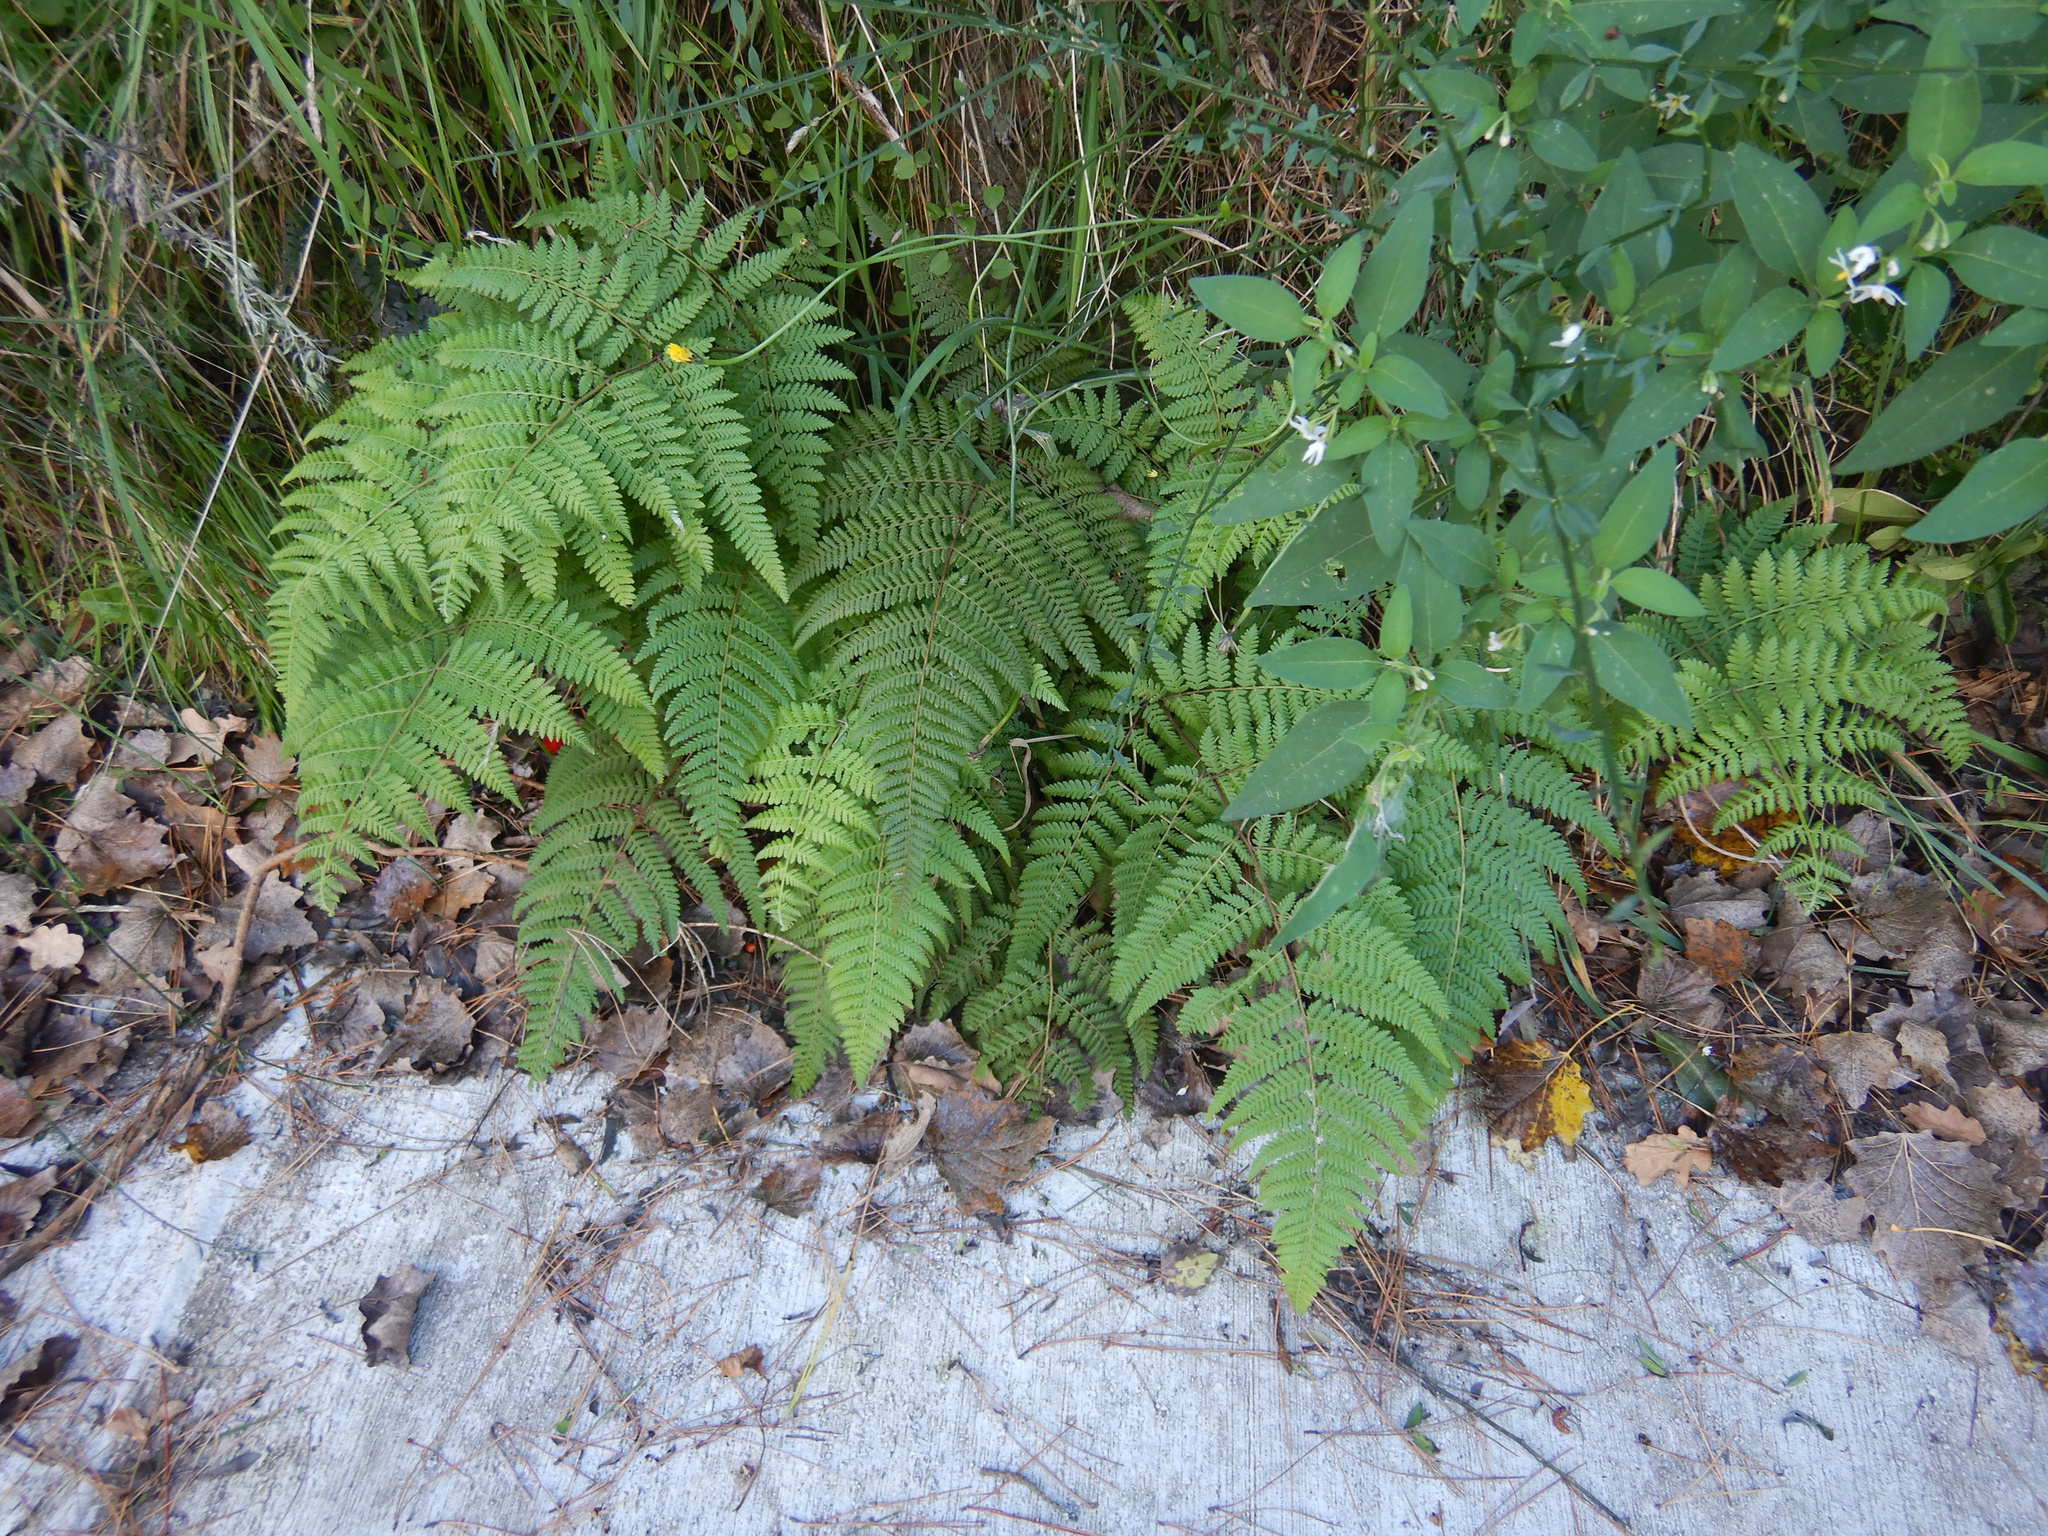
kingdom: Plantae
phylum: Tracheophyta
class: Polypodiopsida
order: Polypodiales
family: Dennstaedtiaceae
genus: Hypolepis
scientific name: Hypolepis ambigua
